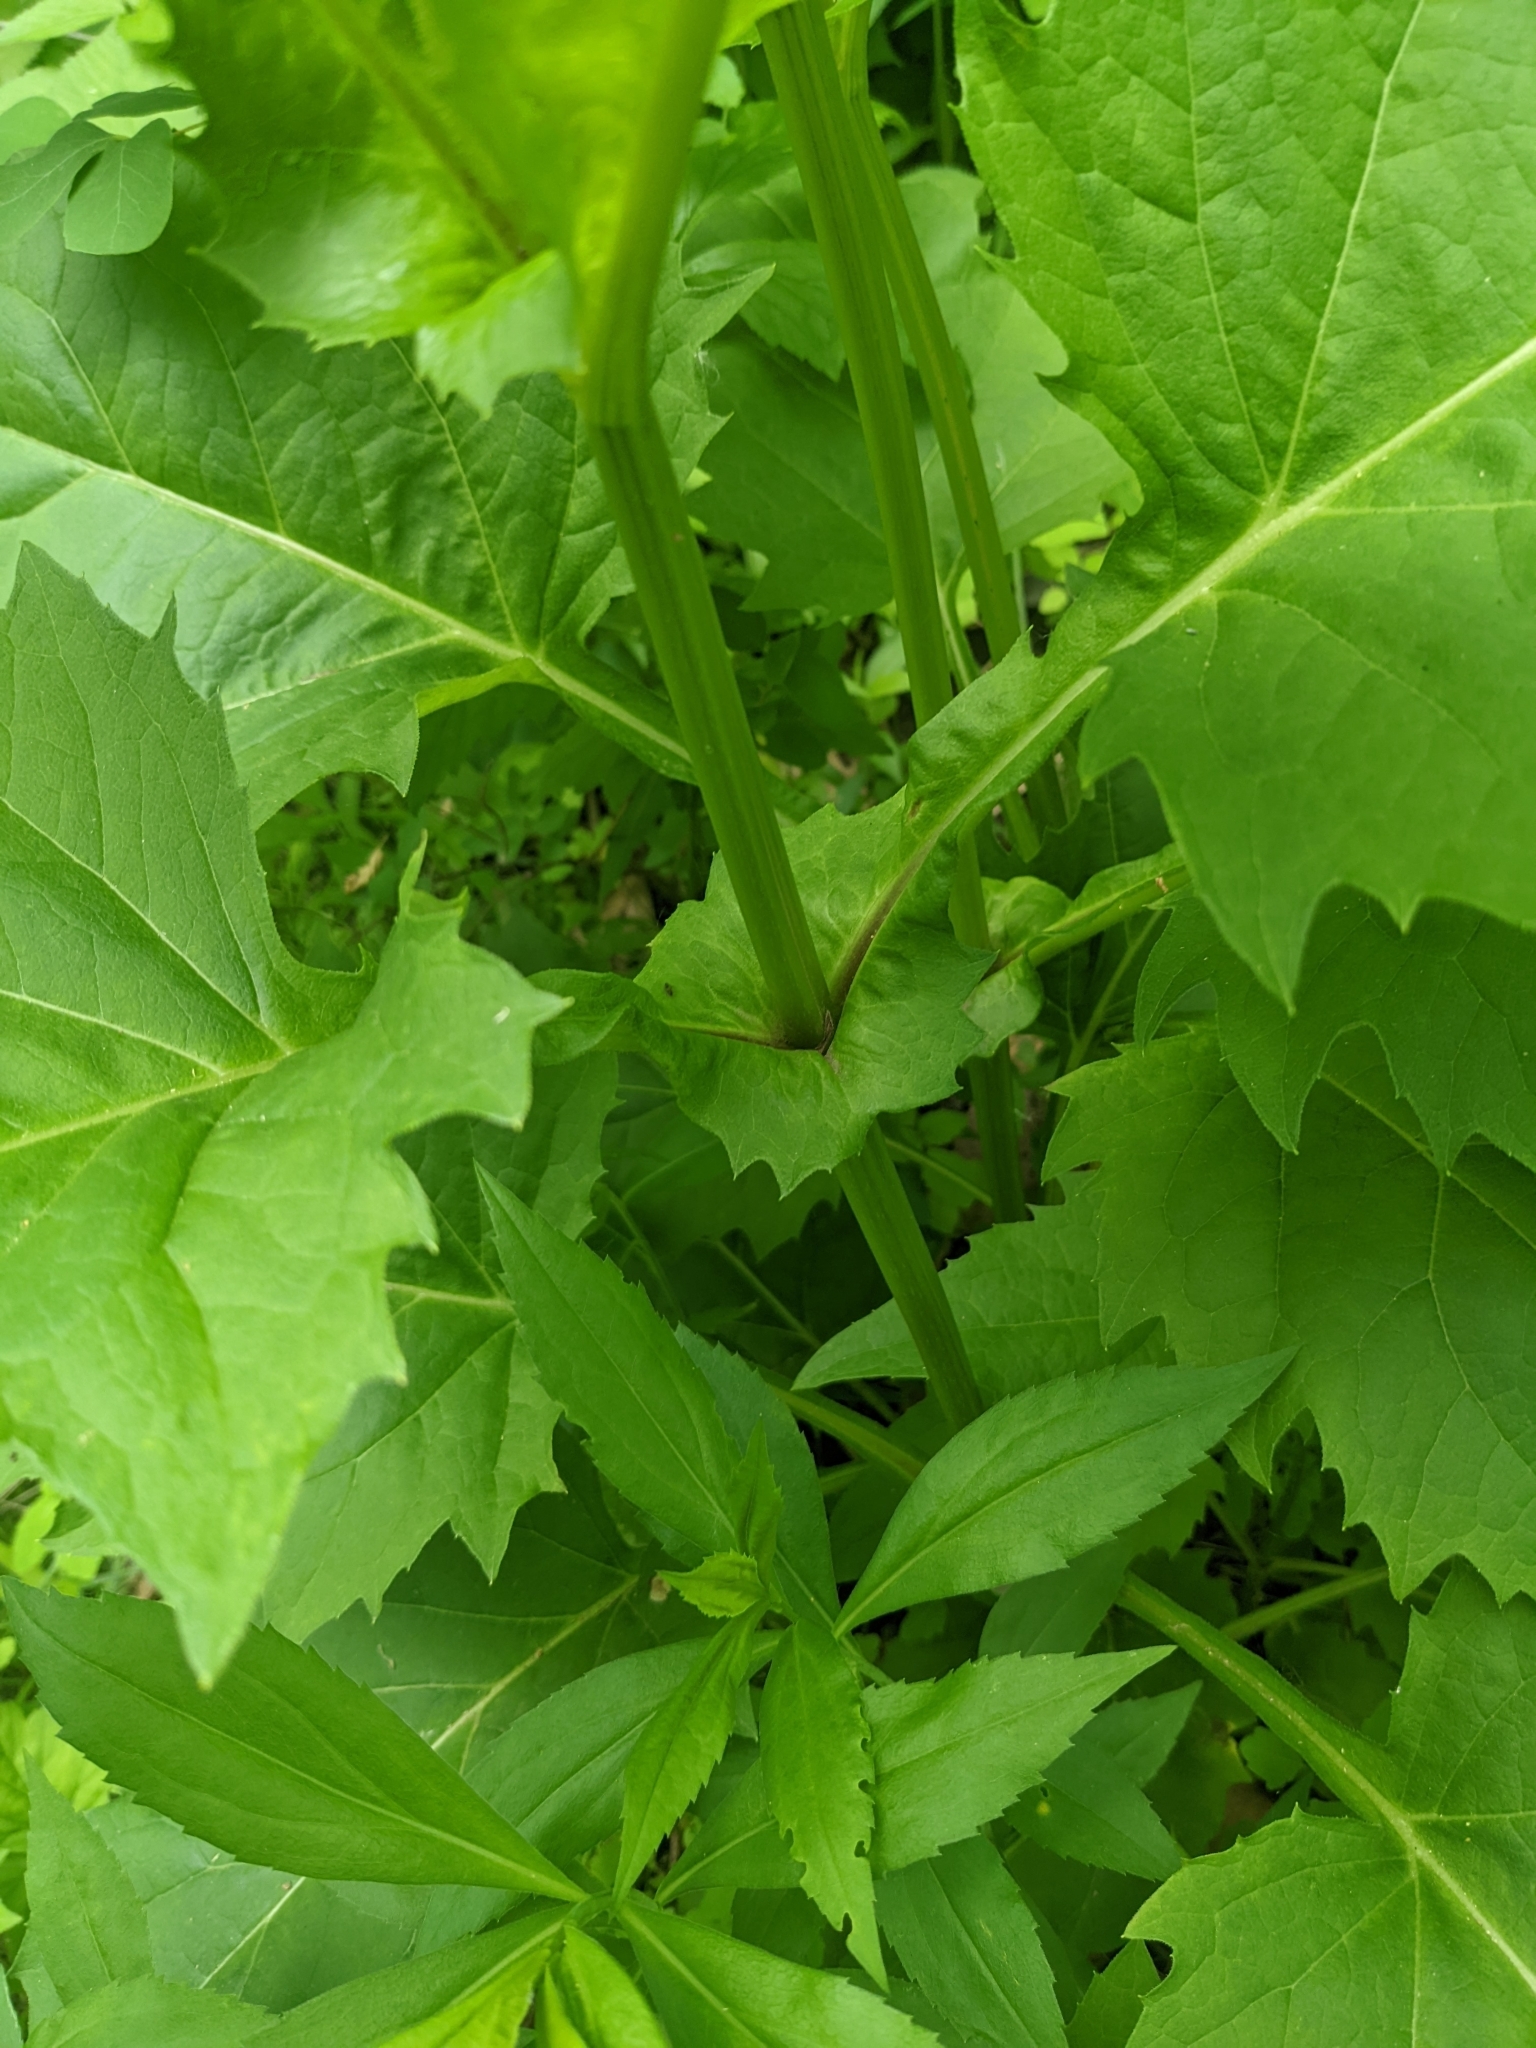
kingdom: Plantae
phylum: Tracheophyta
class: Magnoliopsida
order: Asterales
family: Asteraceae
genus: Silphium
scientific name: Silphium perfoliatum
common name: Cup-plant
